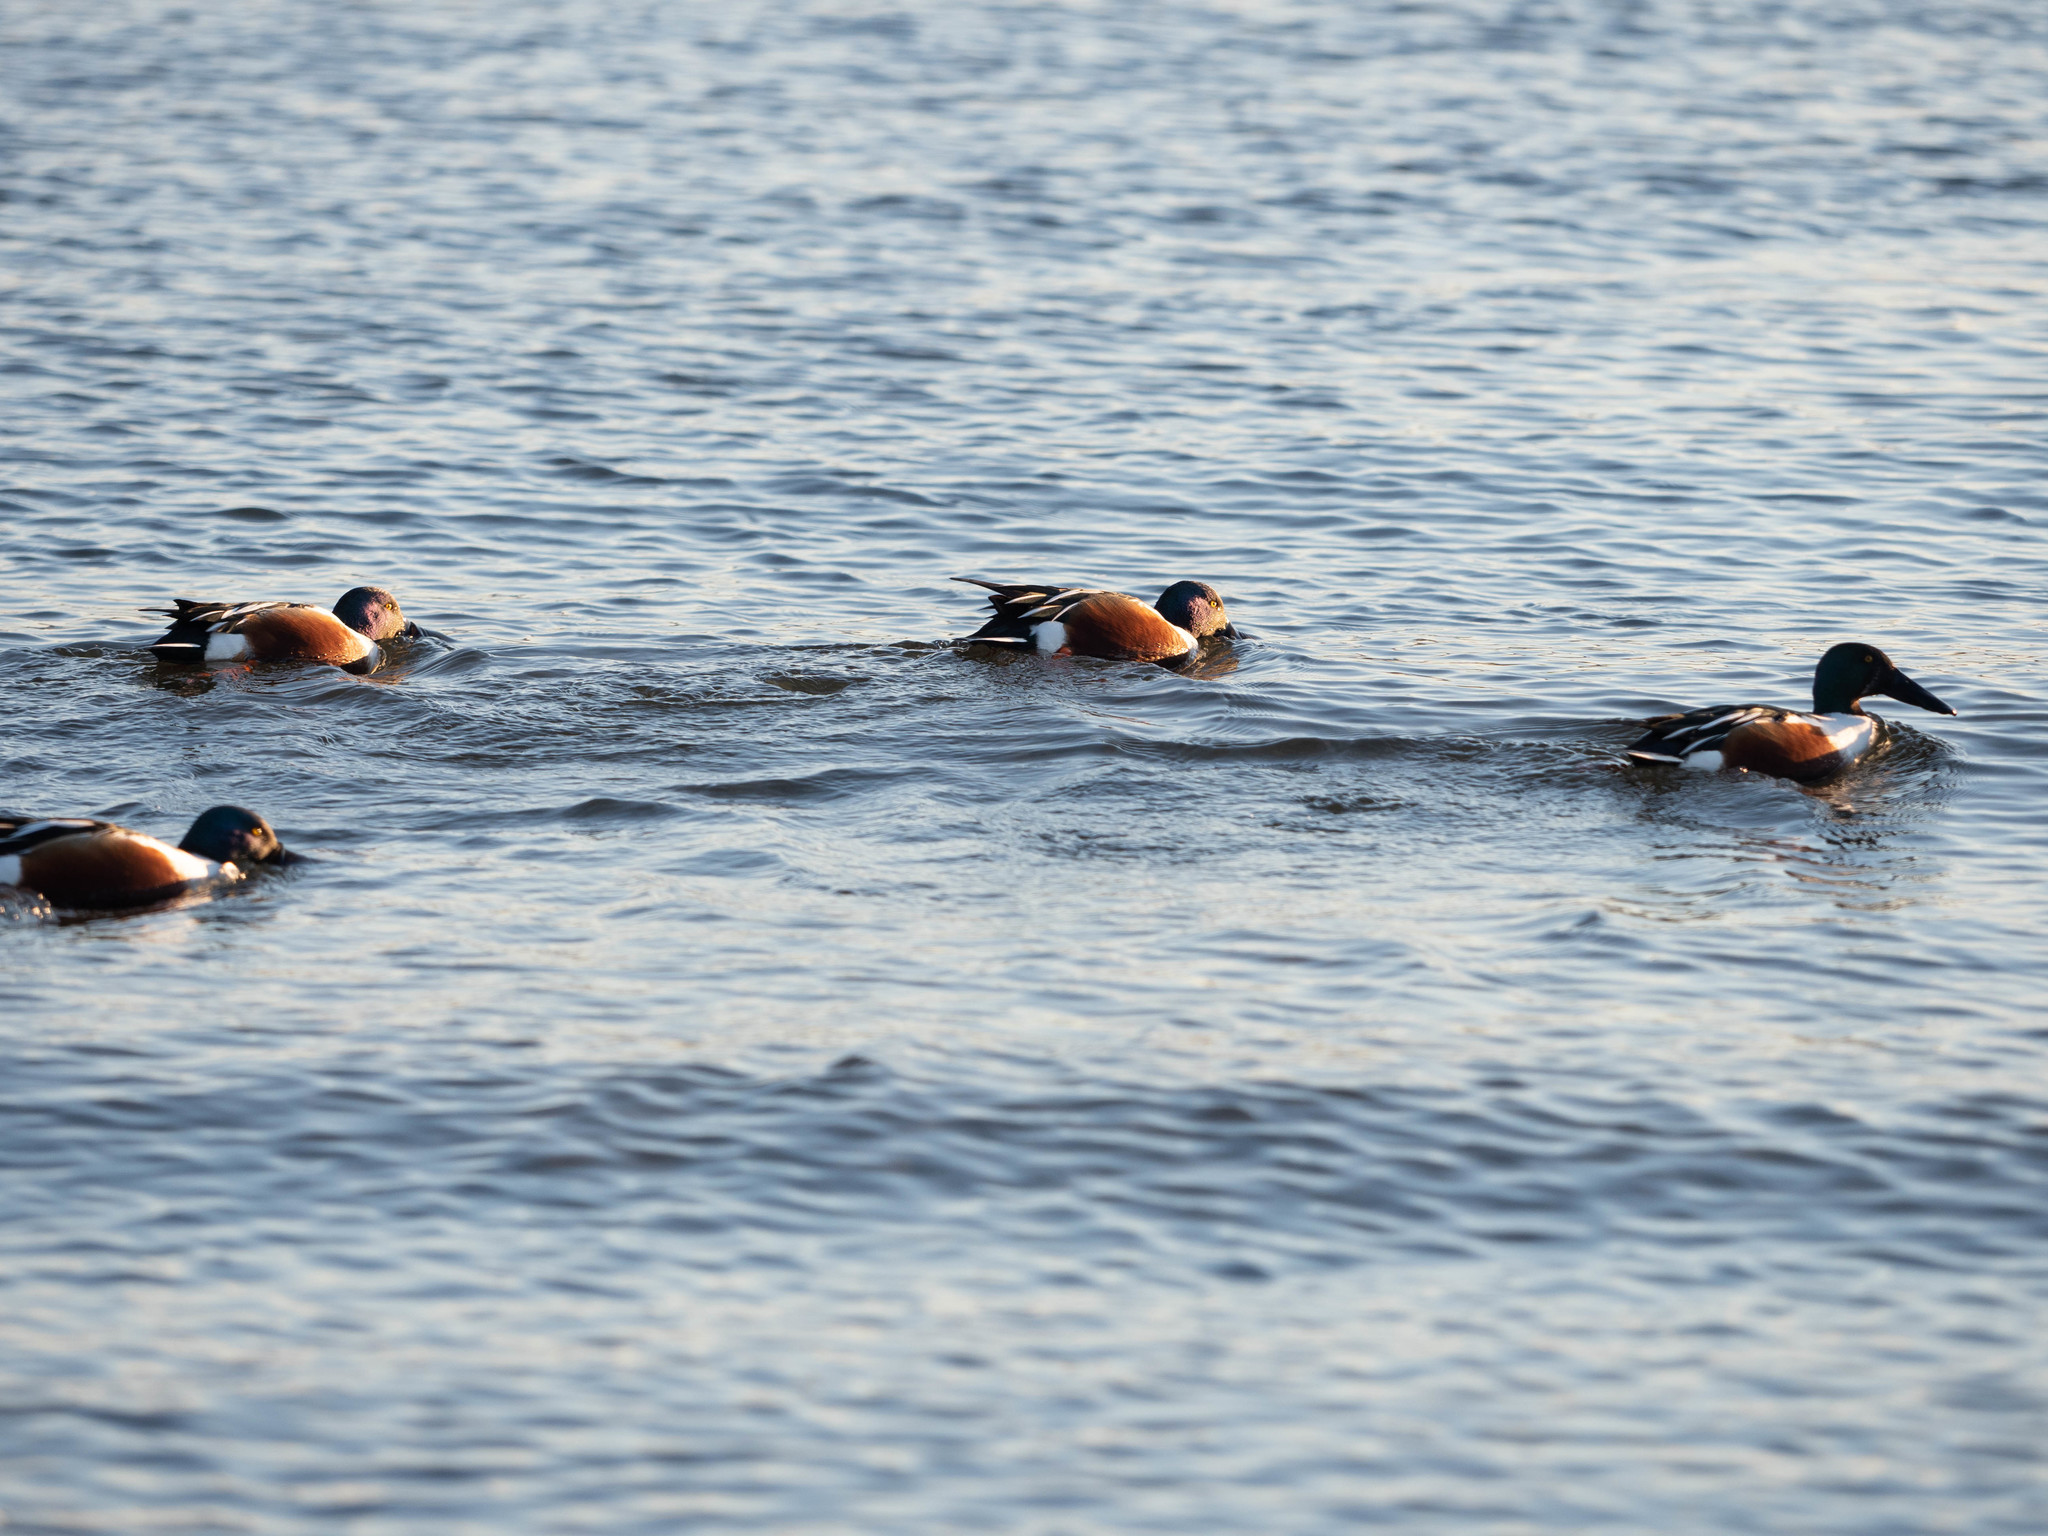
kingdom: Animalia
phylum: Chordata
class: Aves
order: Anseriformes
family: Anatidae
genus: Spatula
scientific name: Spatula clypeata
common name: Northern shoveler
